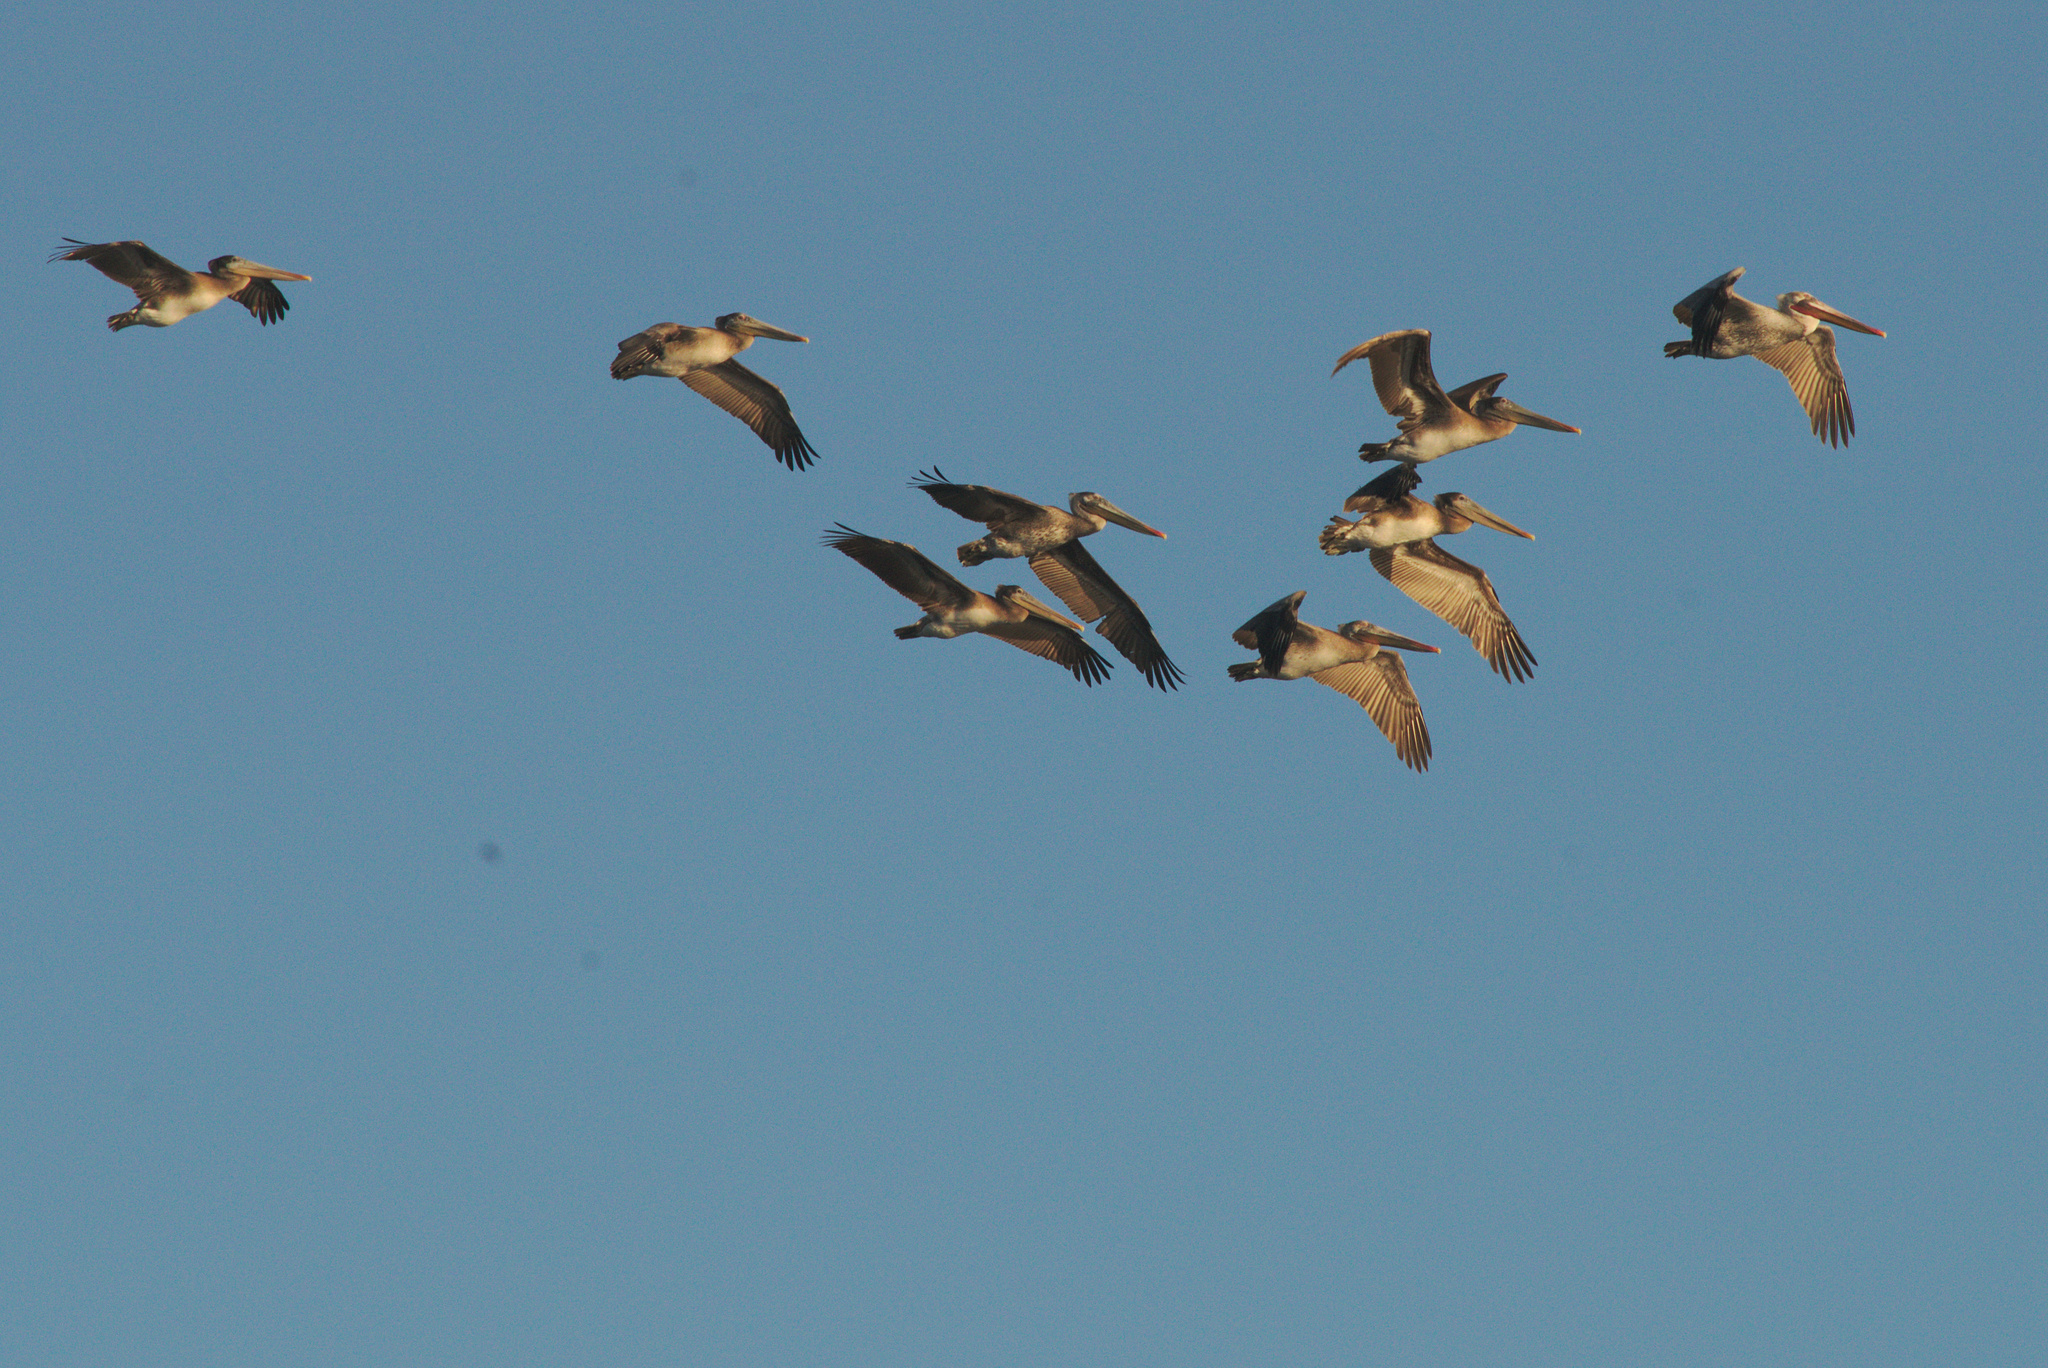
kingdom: Animalia
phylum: Chordata
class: Aves
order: Pelecaniformes
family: Pelecanidae
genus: Pelecanus
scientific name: Pelecanus occidentalis
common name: Brown pelican
